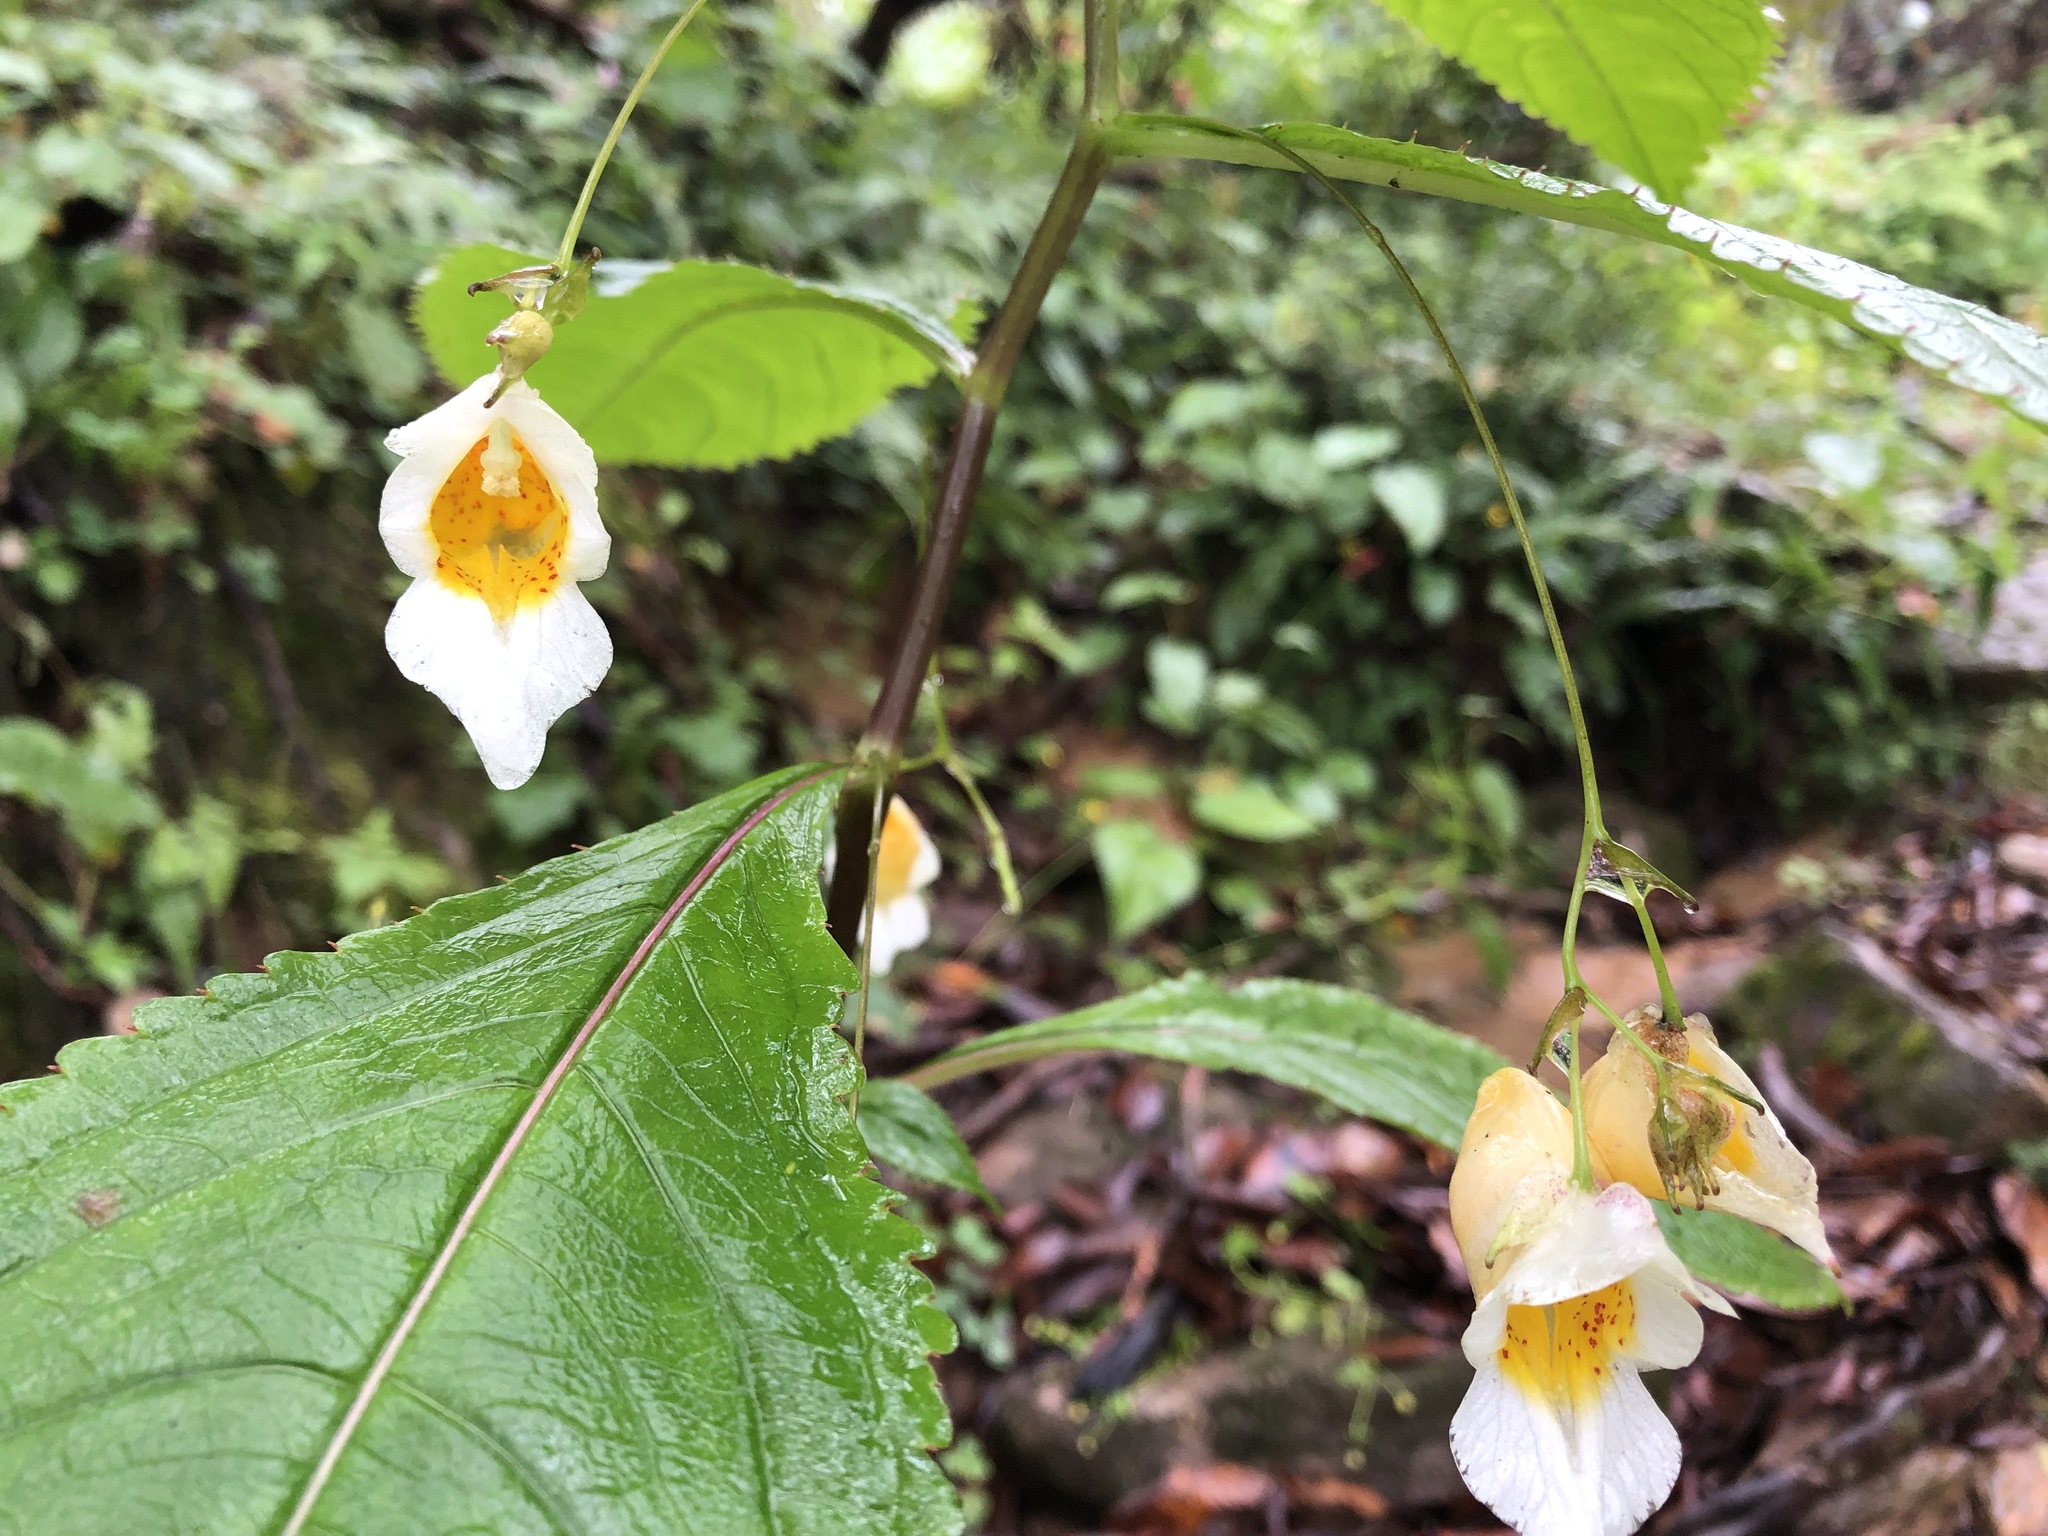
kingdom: Plantae
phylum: Tracheophyta
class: Magnoliopsida
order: Ericales
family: Balsaminaceae
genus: Impatiens
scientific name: Impatiens scabrida
